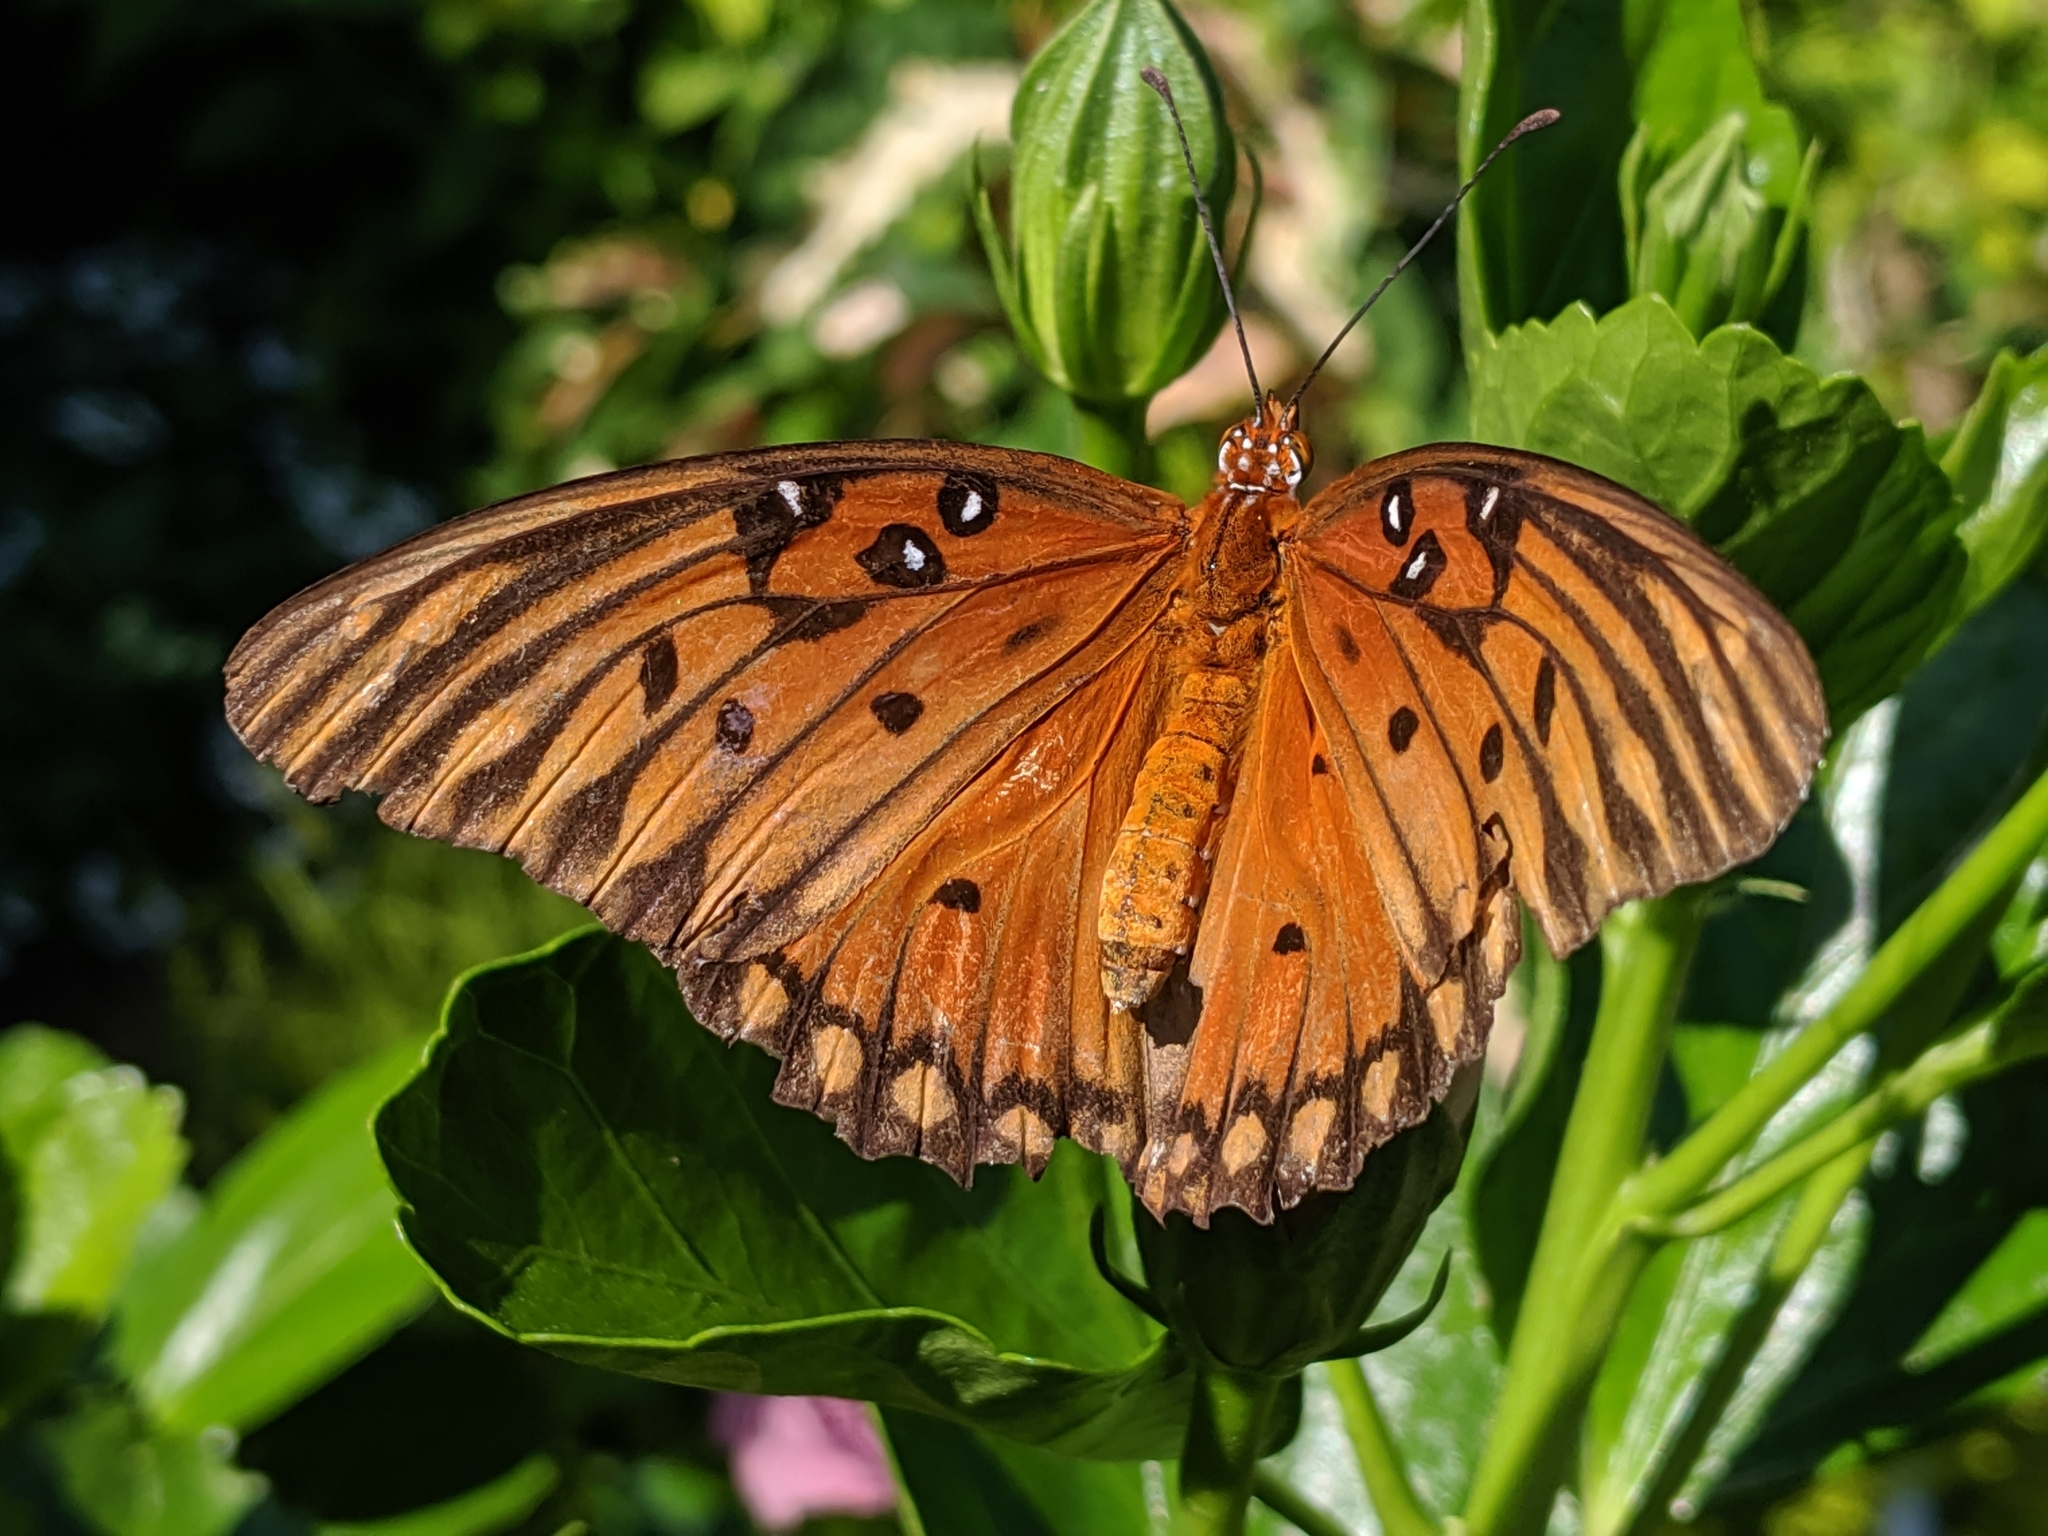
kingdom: Animalia
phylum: Arthropoda
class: Insecta
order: Lepidoptera
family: Nymphalidae
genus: Dione
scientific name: Dione vanillae
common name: Gulf fritillary
